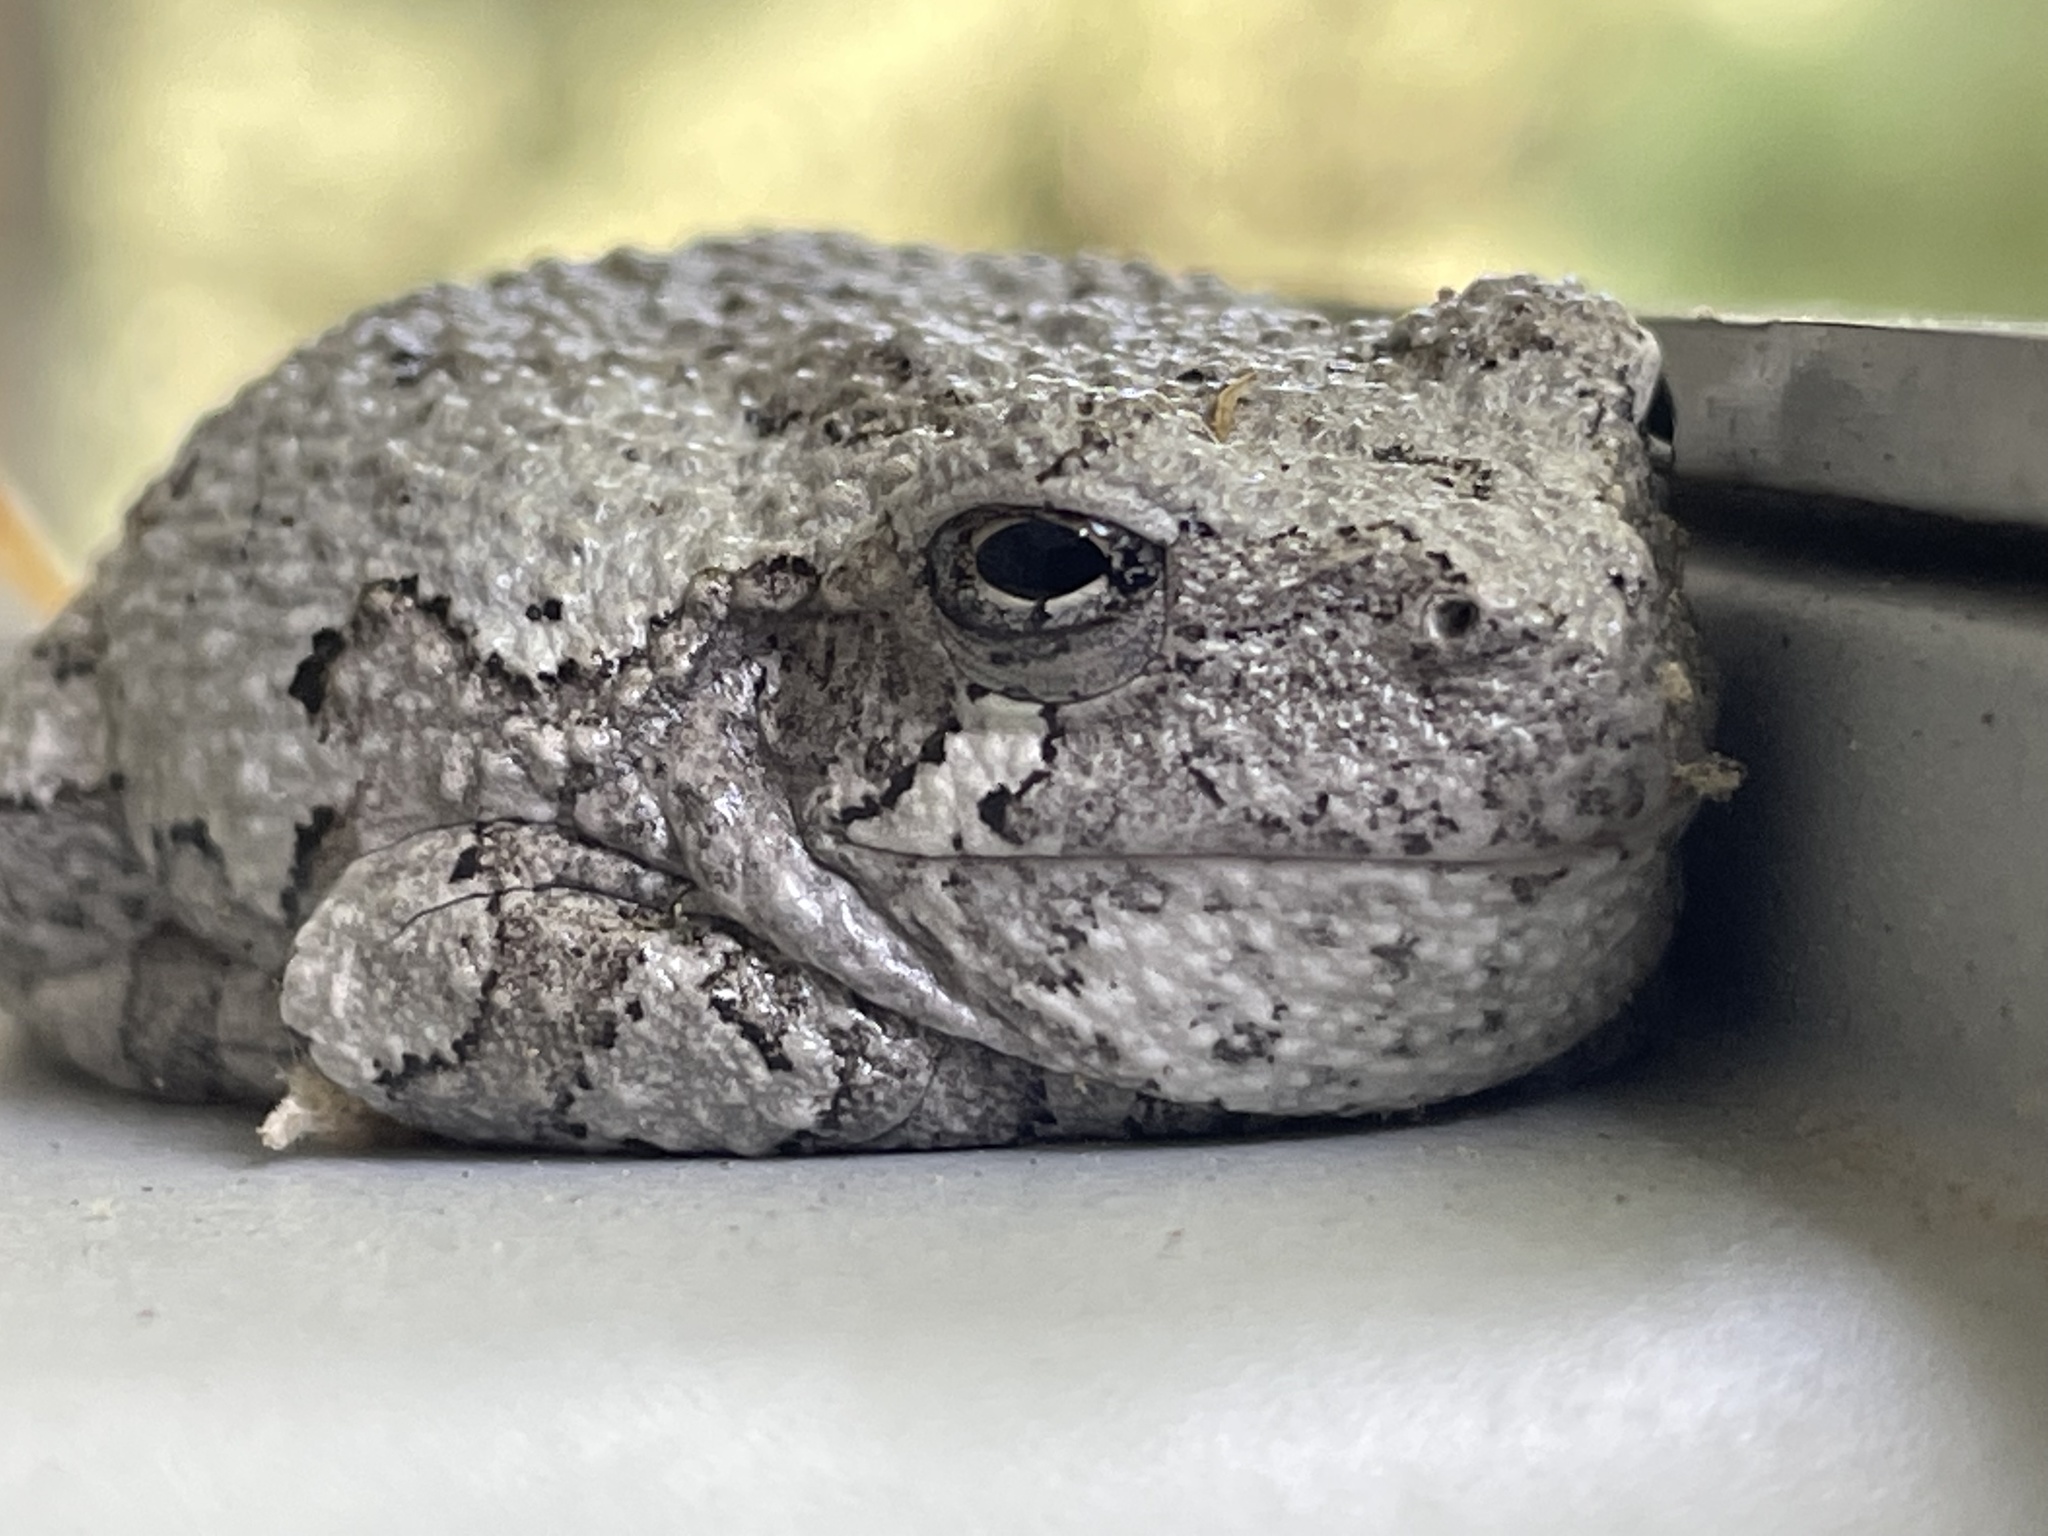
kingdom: Animalia
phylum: Chordata
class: Amphibia
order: Anura
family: Hylidae
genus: Dryophytes
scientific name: Dryophytes versicolor
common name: Gray treefrog
